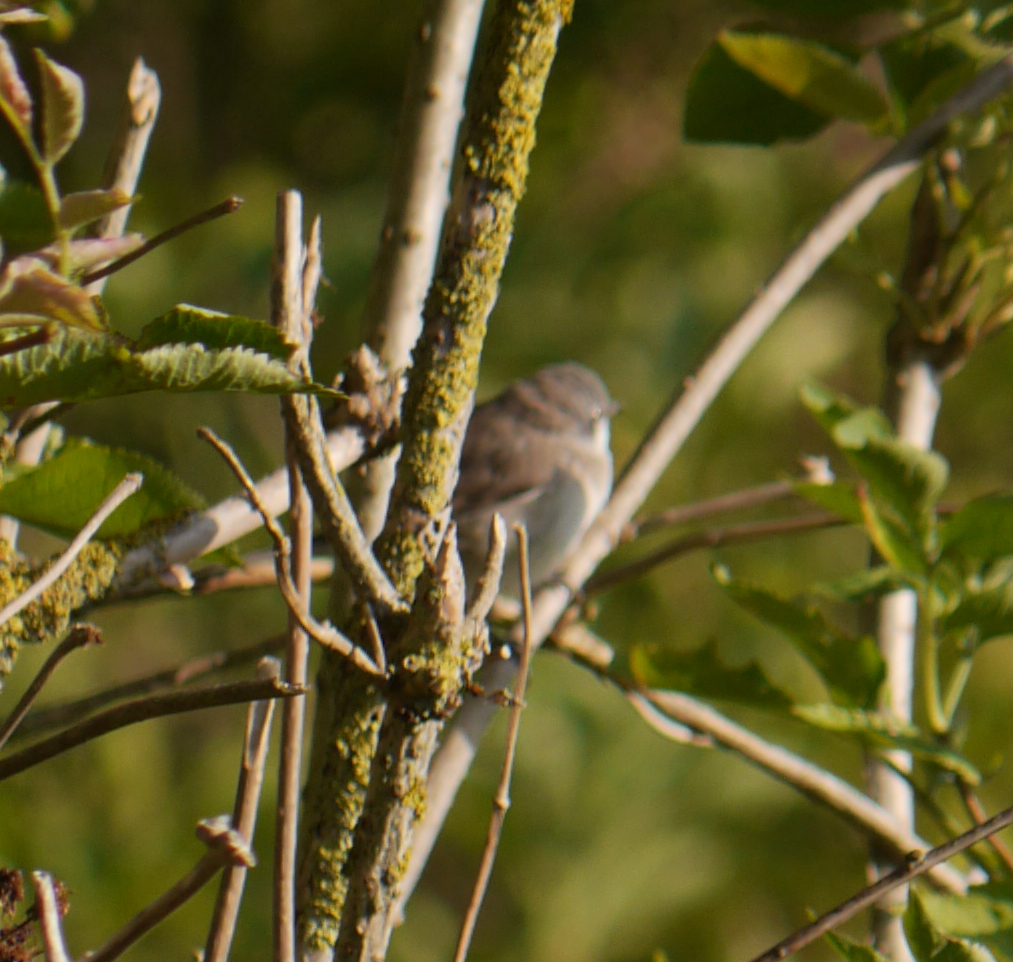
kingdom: Animalia
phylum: Chordata
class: Aves
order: Passeriformes
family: Sylviidae
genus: Sylvia
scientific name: Sylvia curruca
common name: Lesser whitethroat
